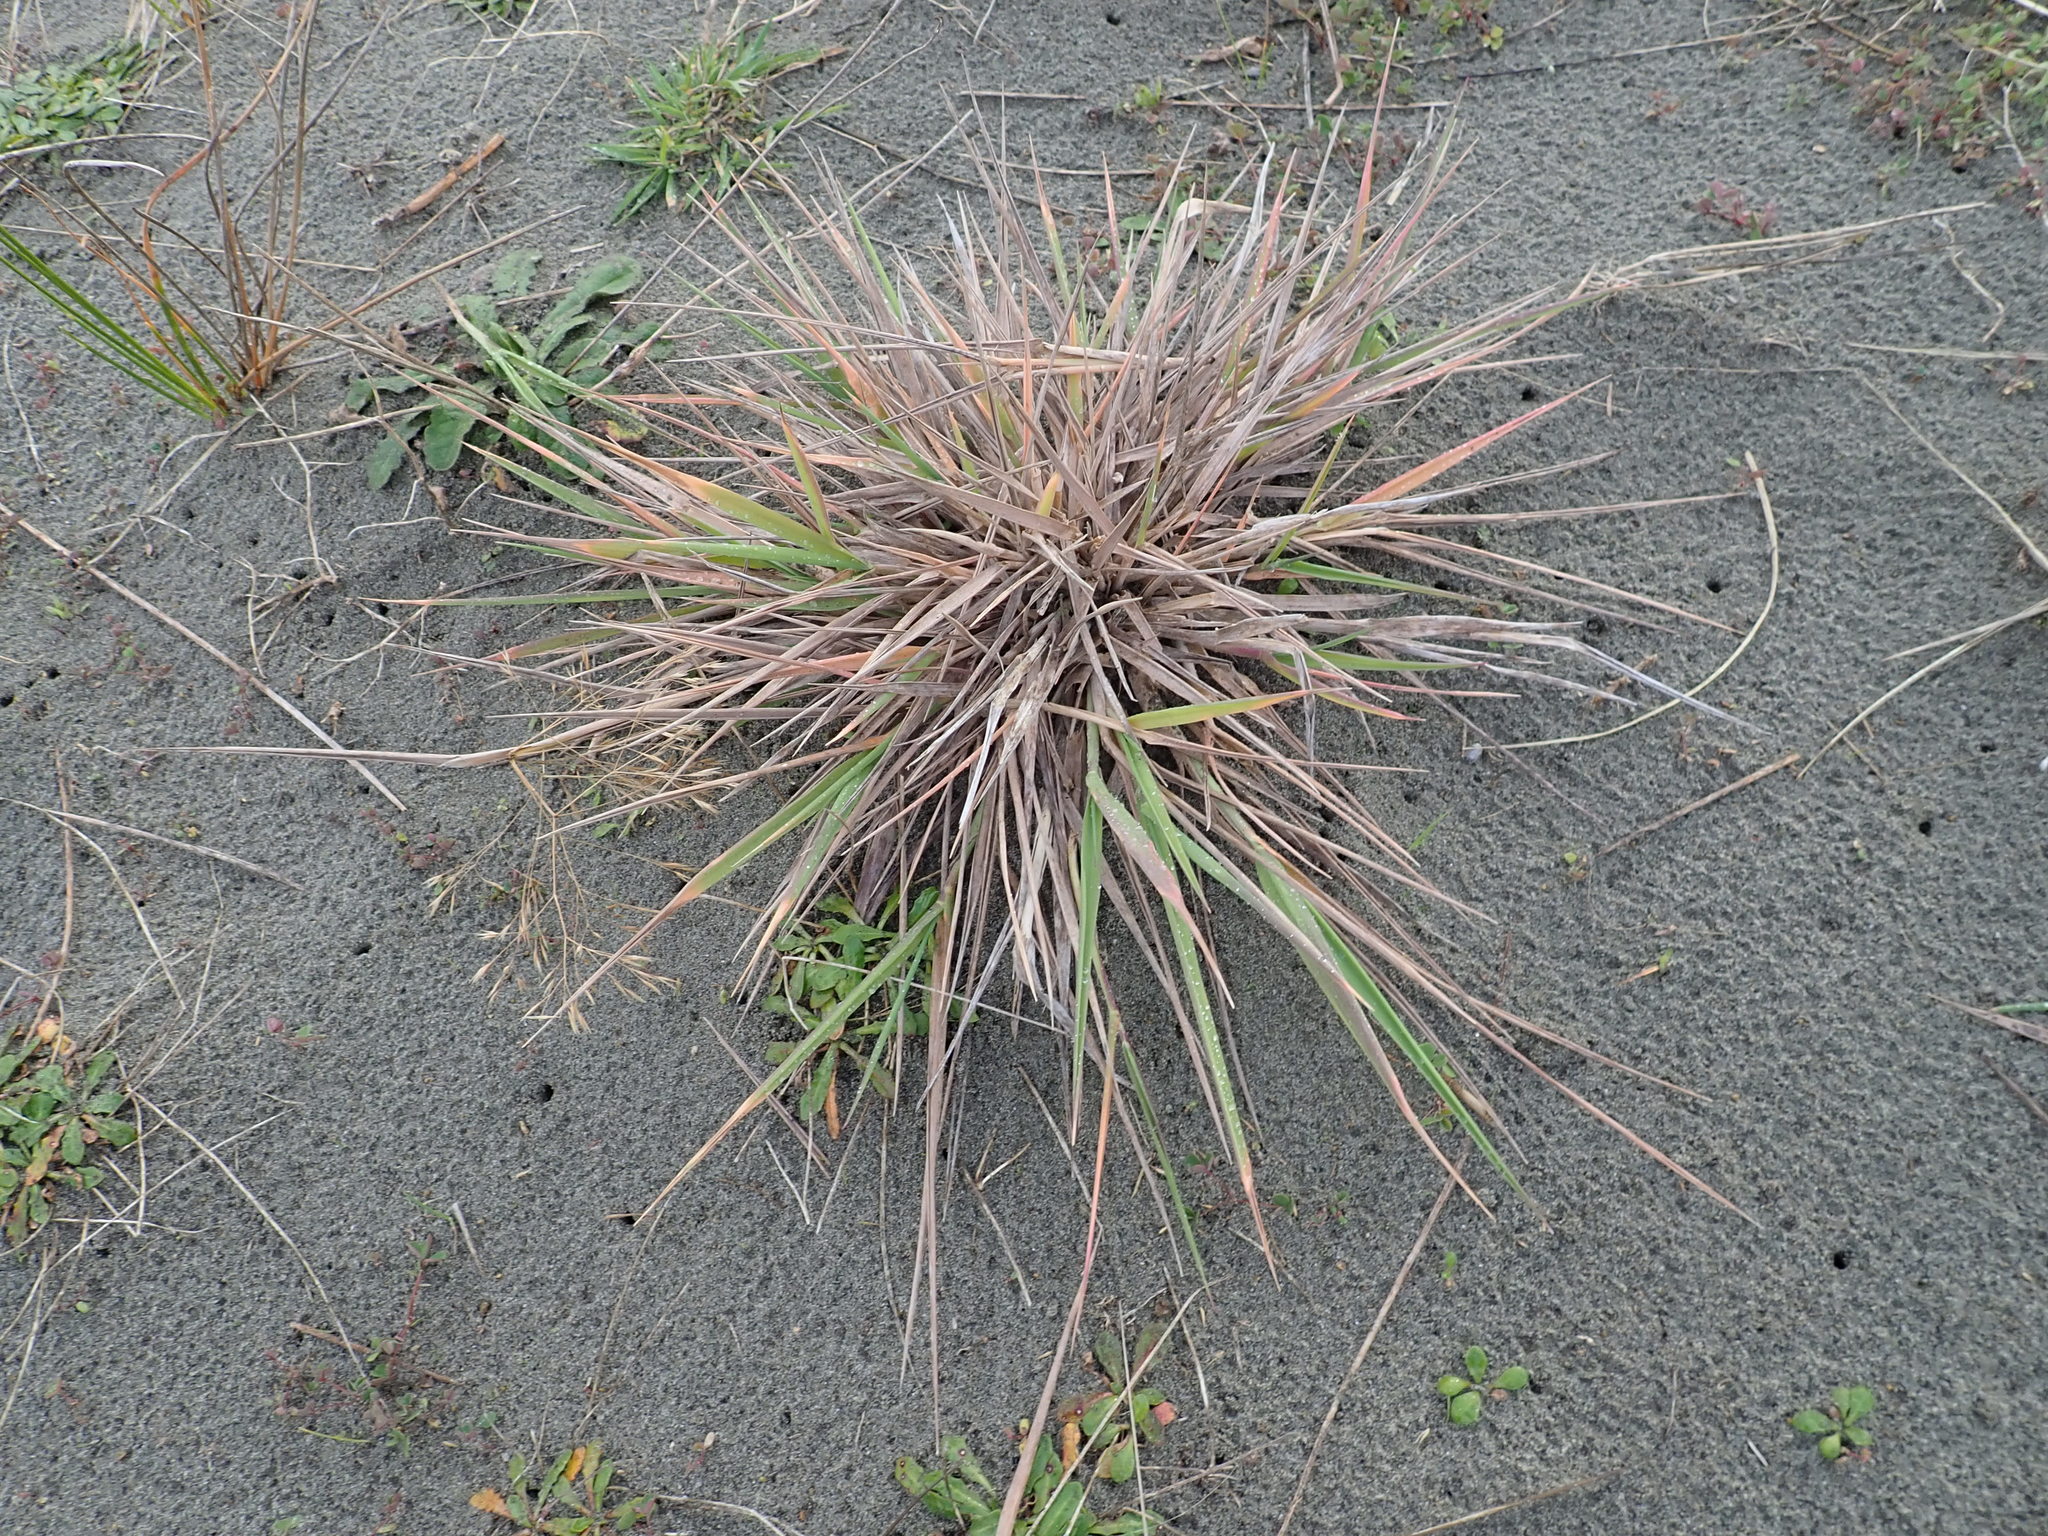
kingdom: Plantae
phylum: Tracheophyta
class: Liliopsida
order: Poales
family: Poaceae
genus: Lachnagrostis
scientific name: Lachnagrostis billardierei
